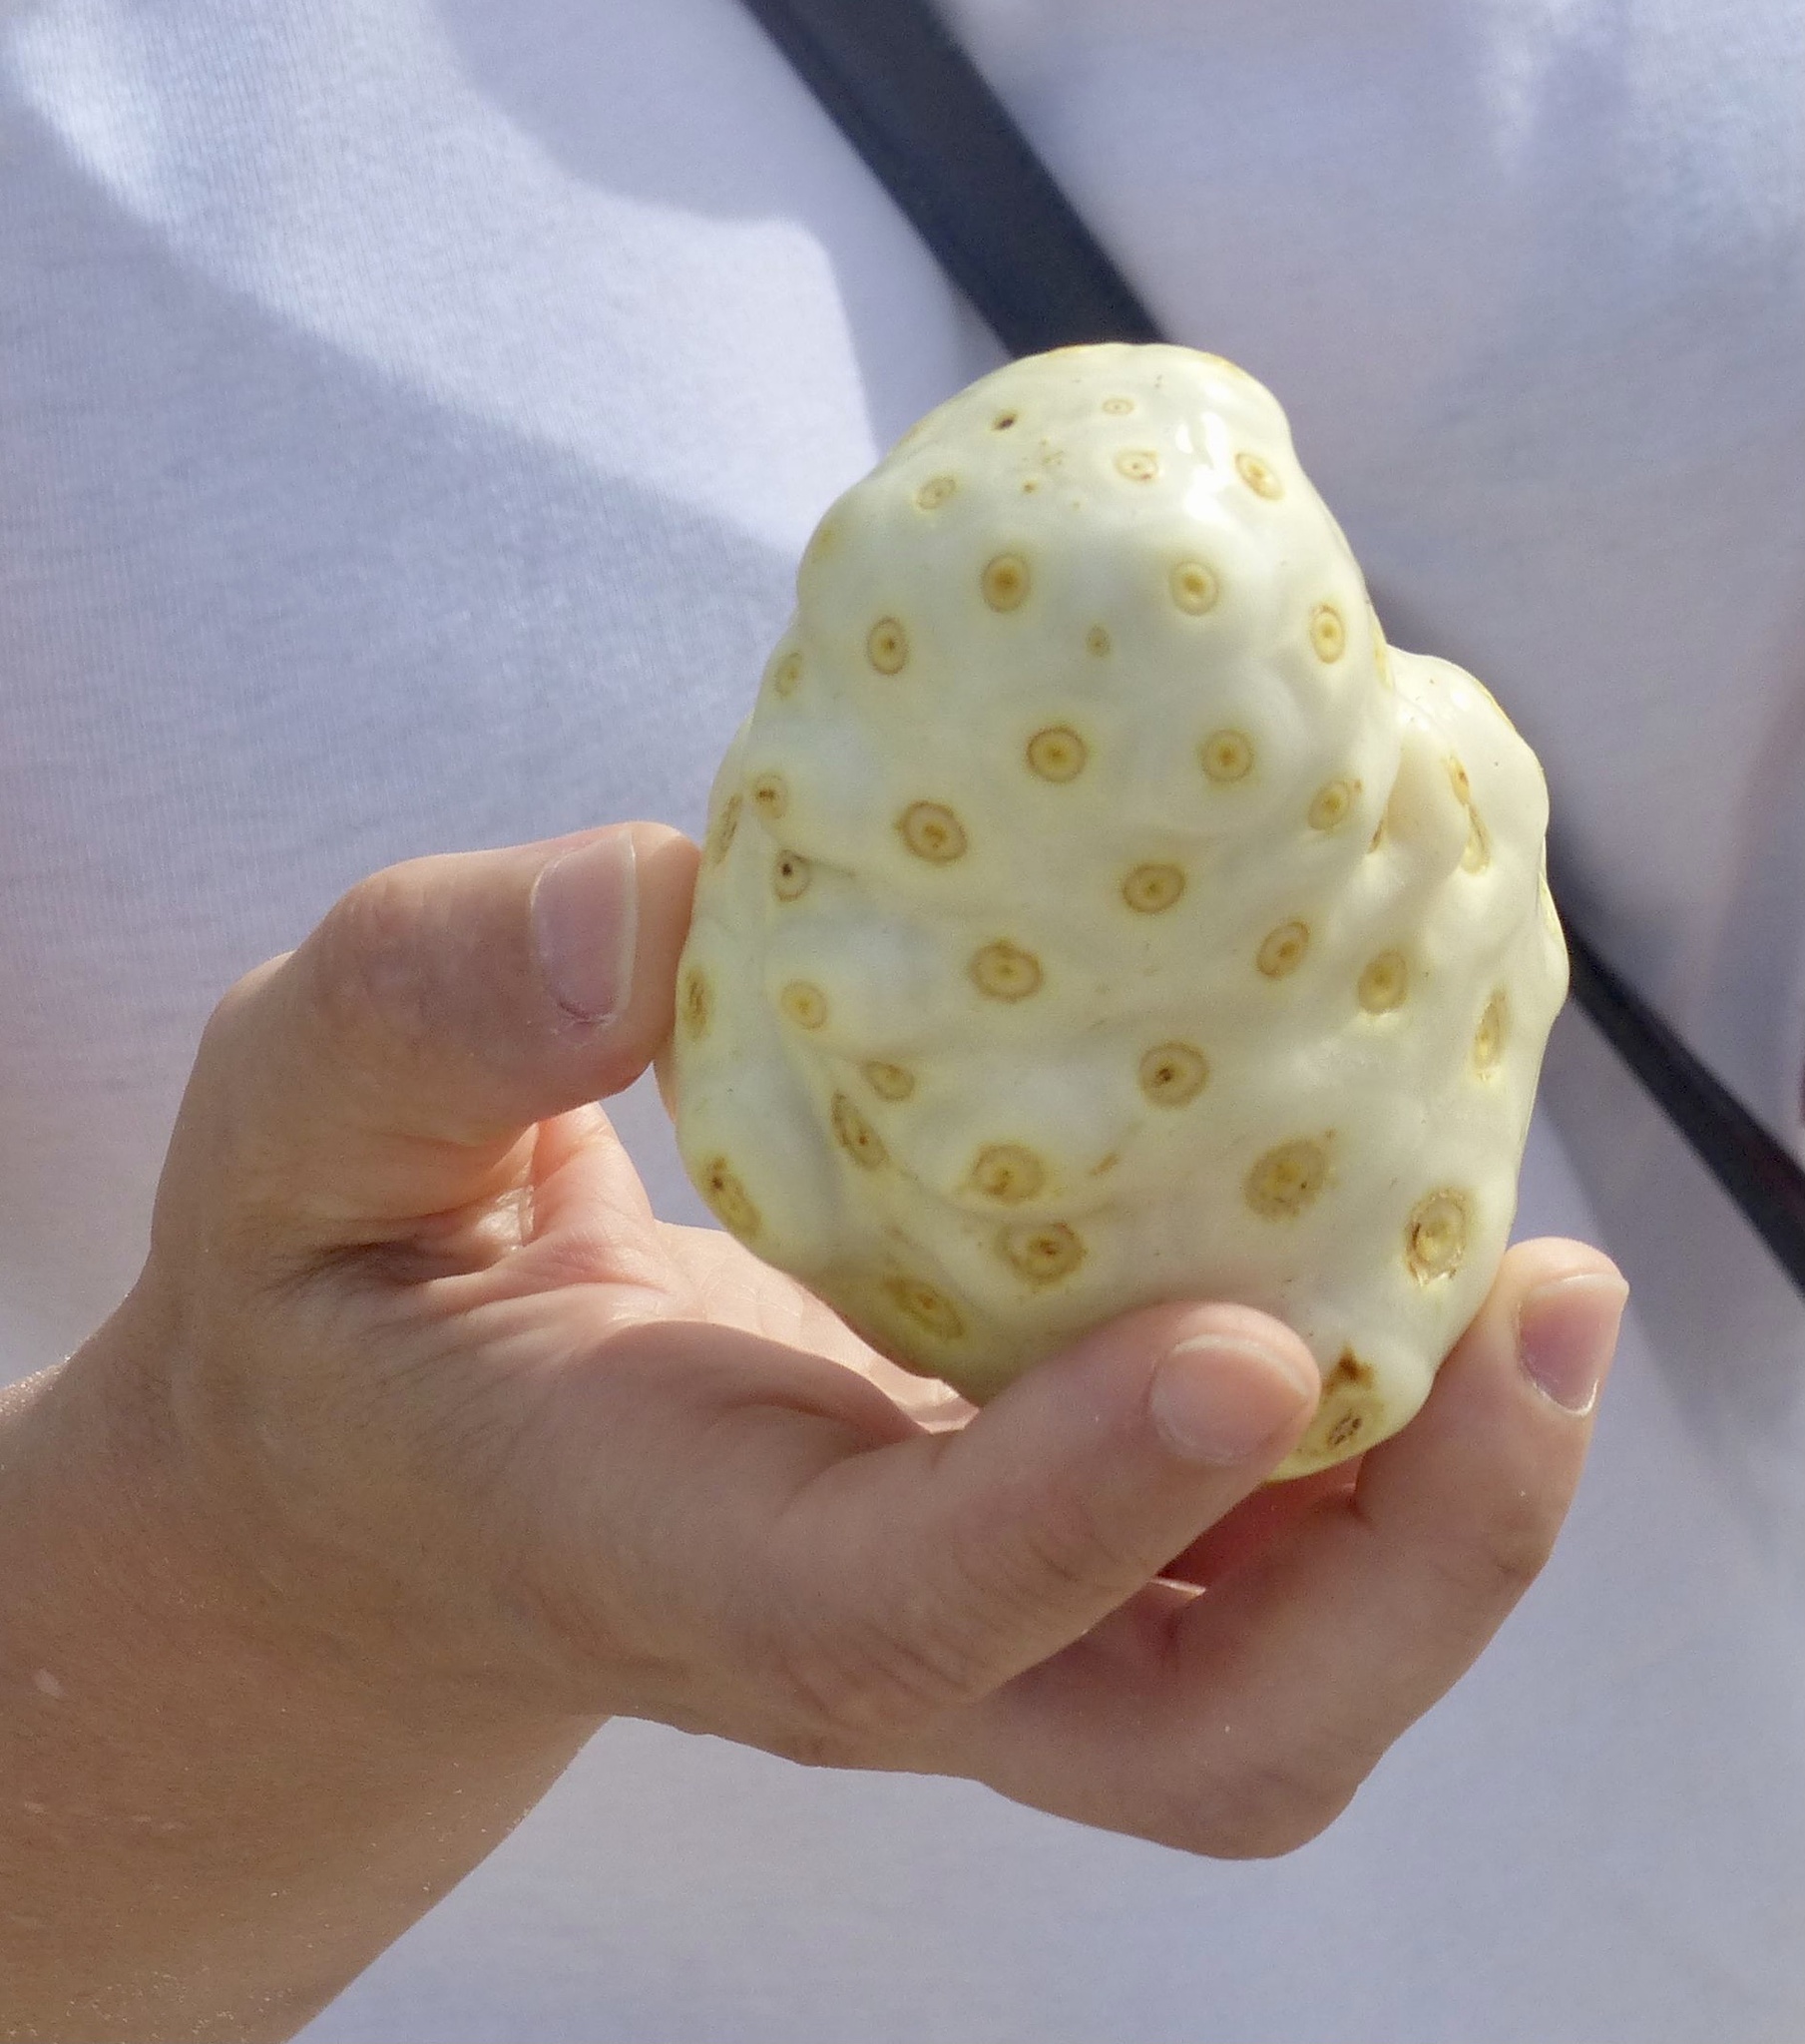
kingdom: Plantae
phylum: Tracheophyta
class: Magnoliopsida
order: Gentianales
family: Rubiaceae
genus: Morinda
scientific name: Morinda citrifolia
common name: Indian-mulberry
